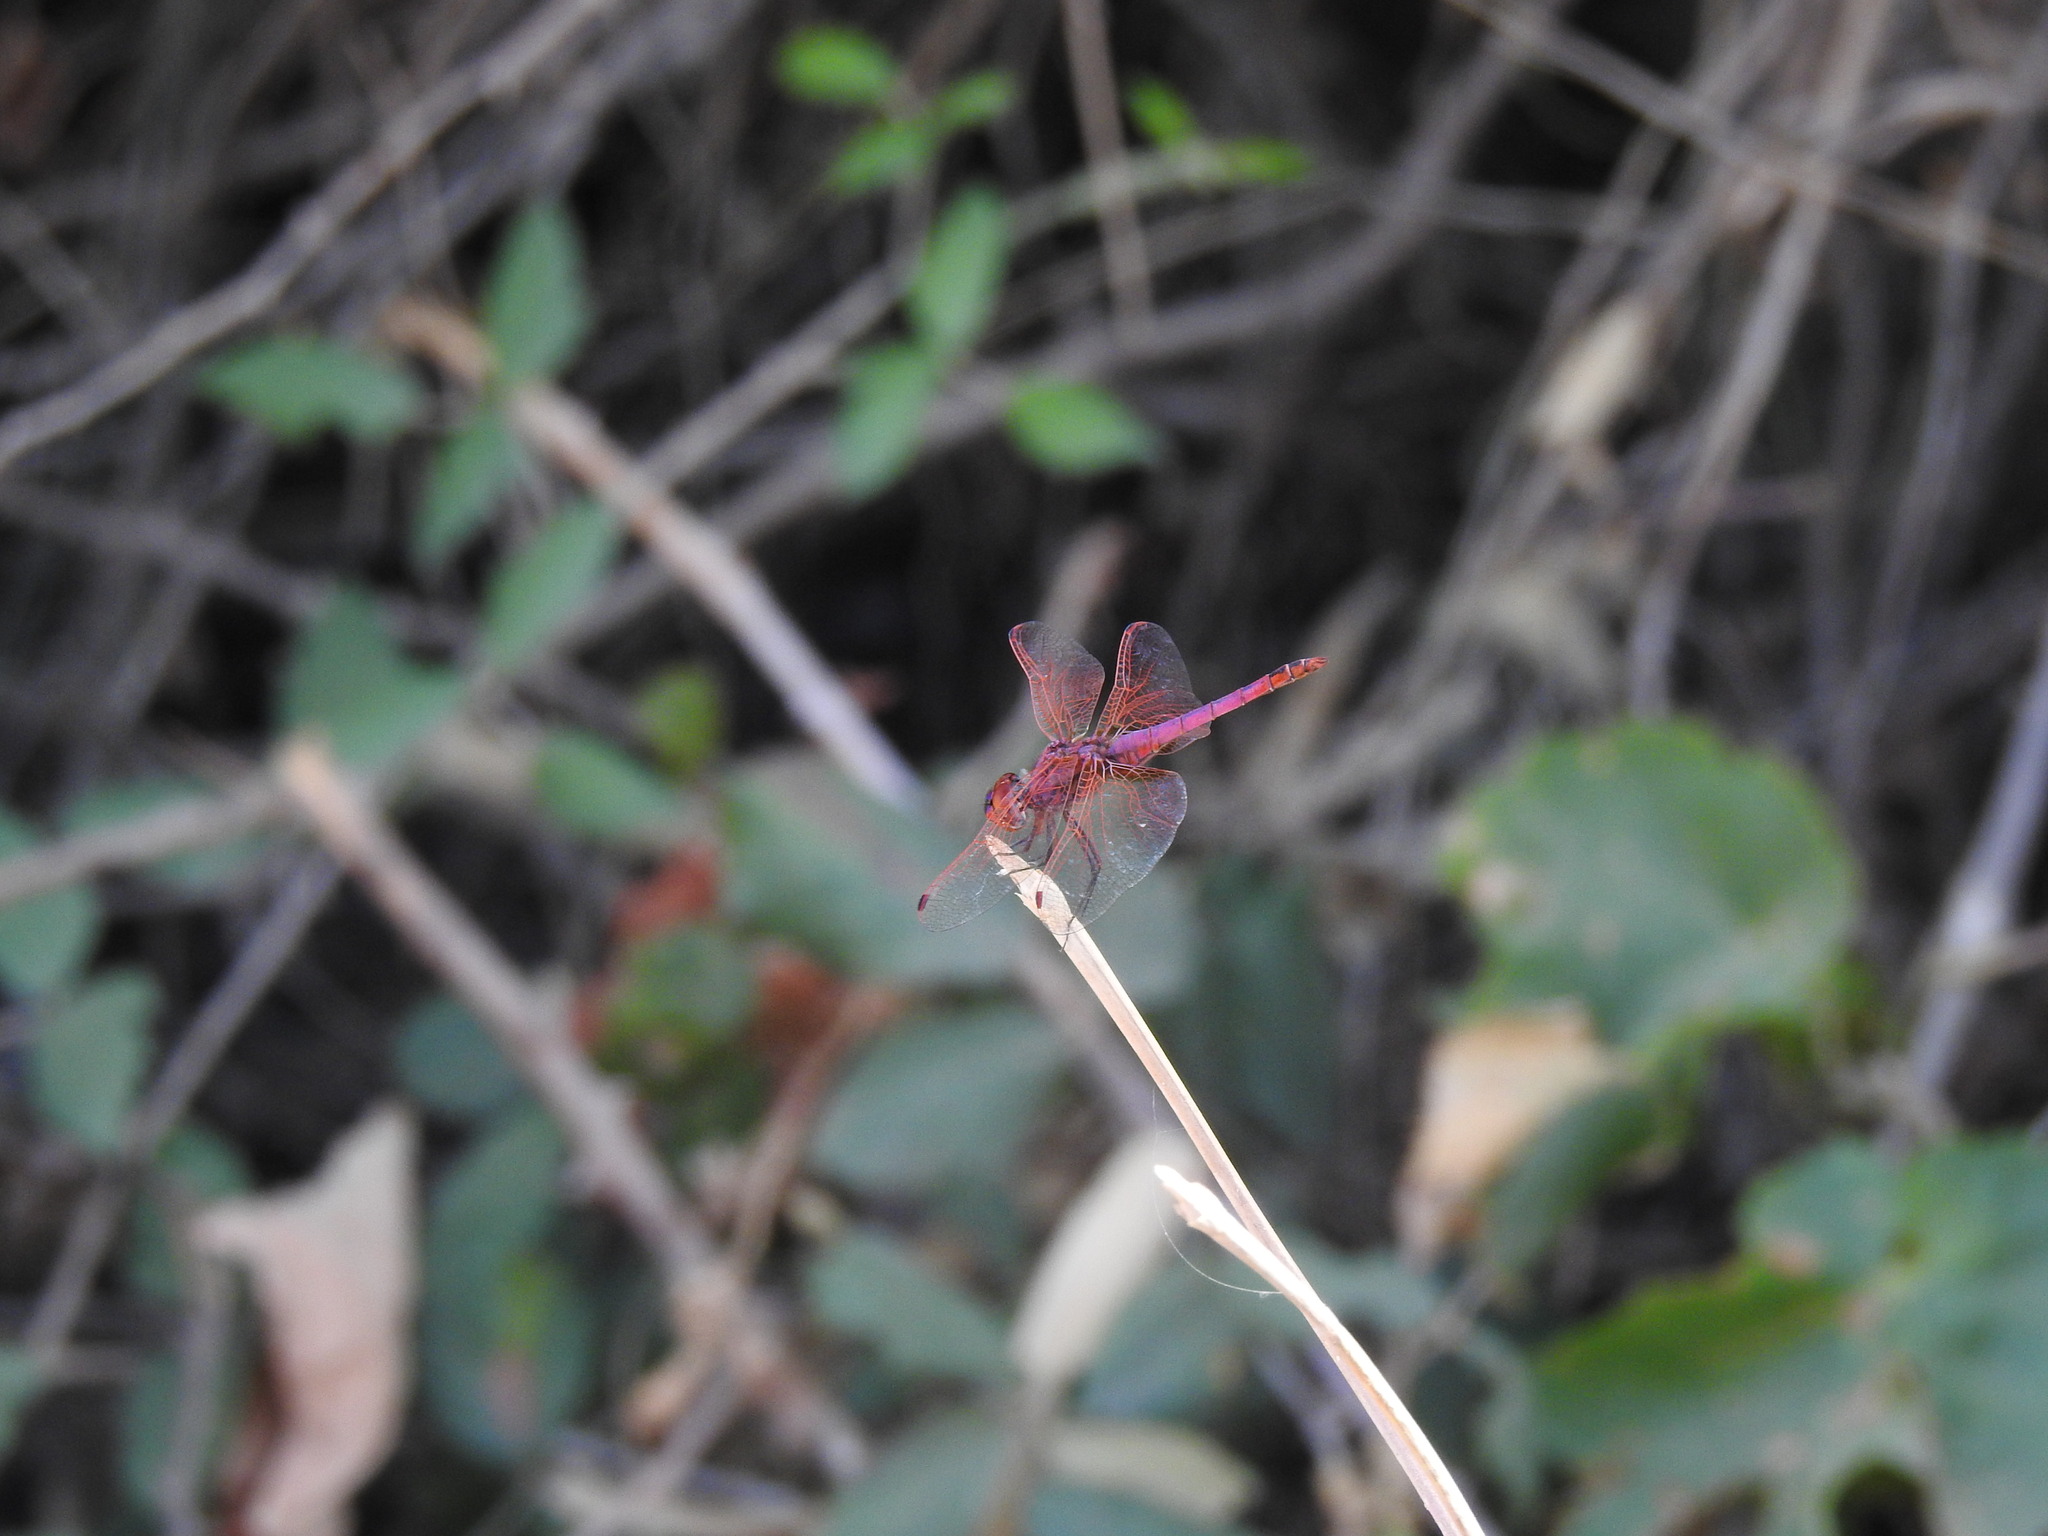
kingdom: Animalia
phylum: Arthropoda
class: Insecta
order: Odonata
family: Libellulidae
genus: Trithemis
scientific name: Trithemis annulata
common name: Violet dropwing
